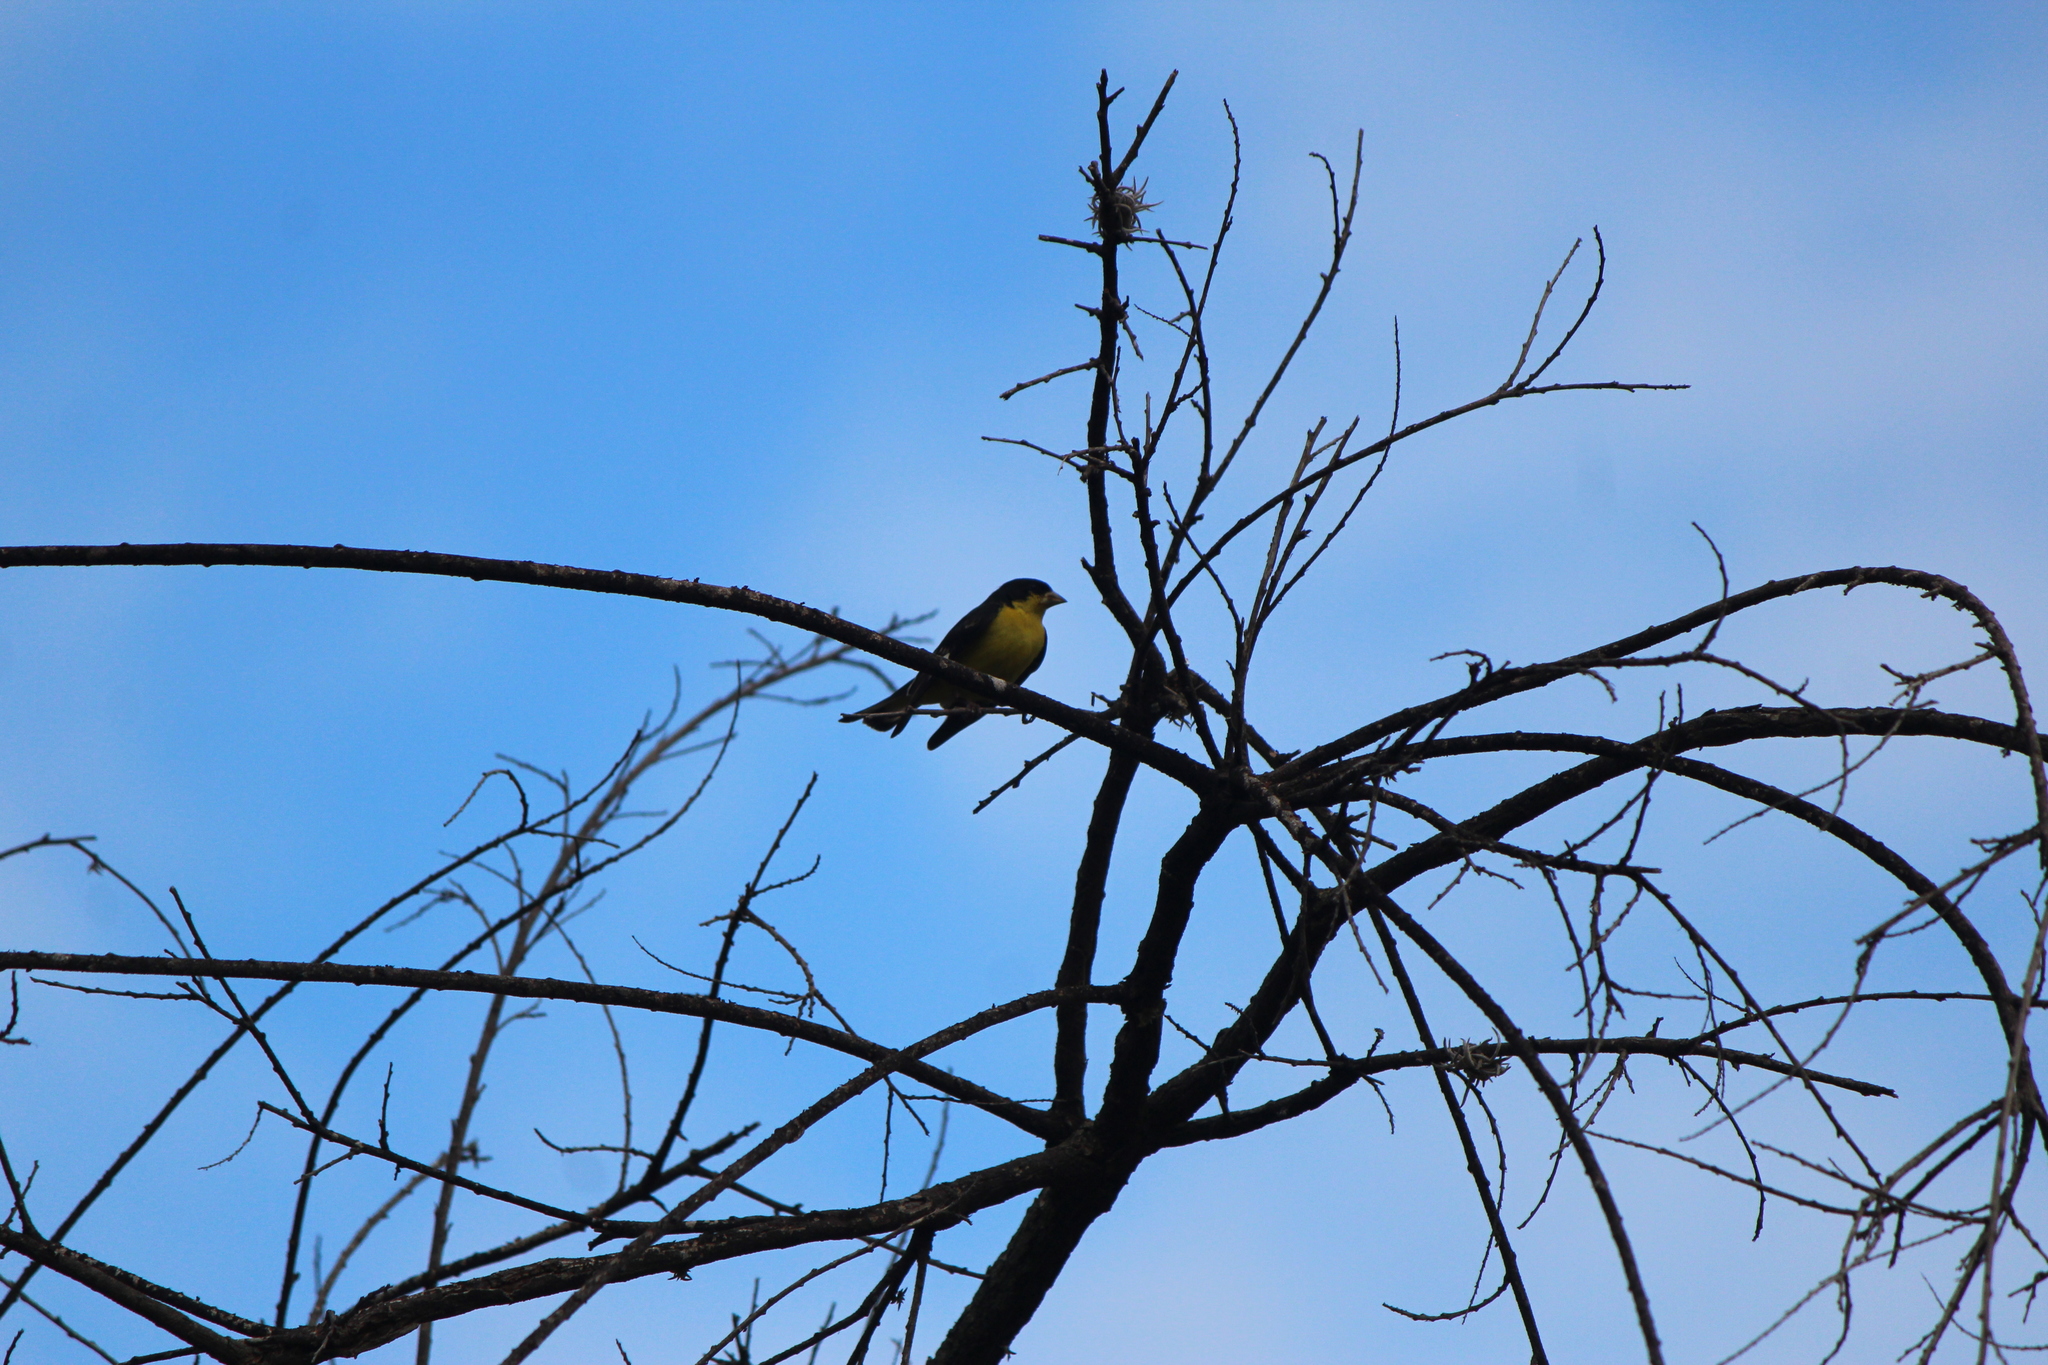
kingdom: Animalia
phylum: Chordata
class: Aves
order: Passeriformes
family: Fringillidae
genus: Spinus
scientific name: Spinus psaltria
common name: Lesser goldfinch
